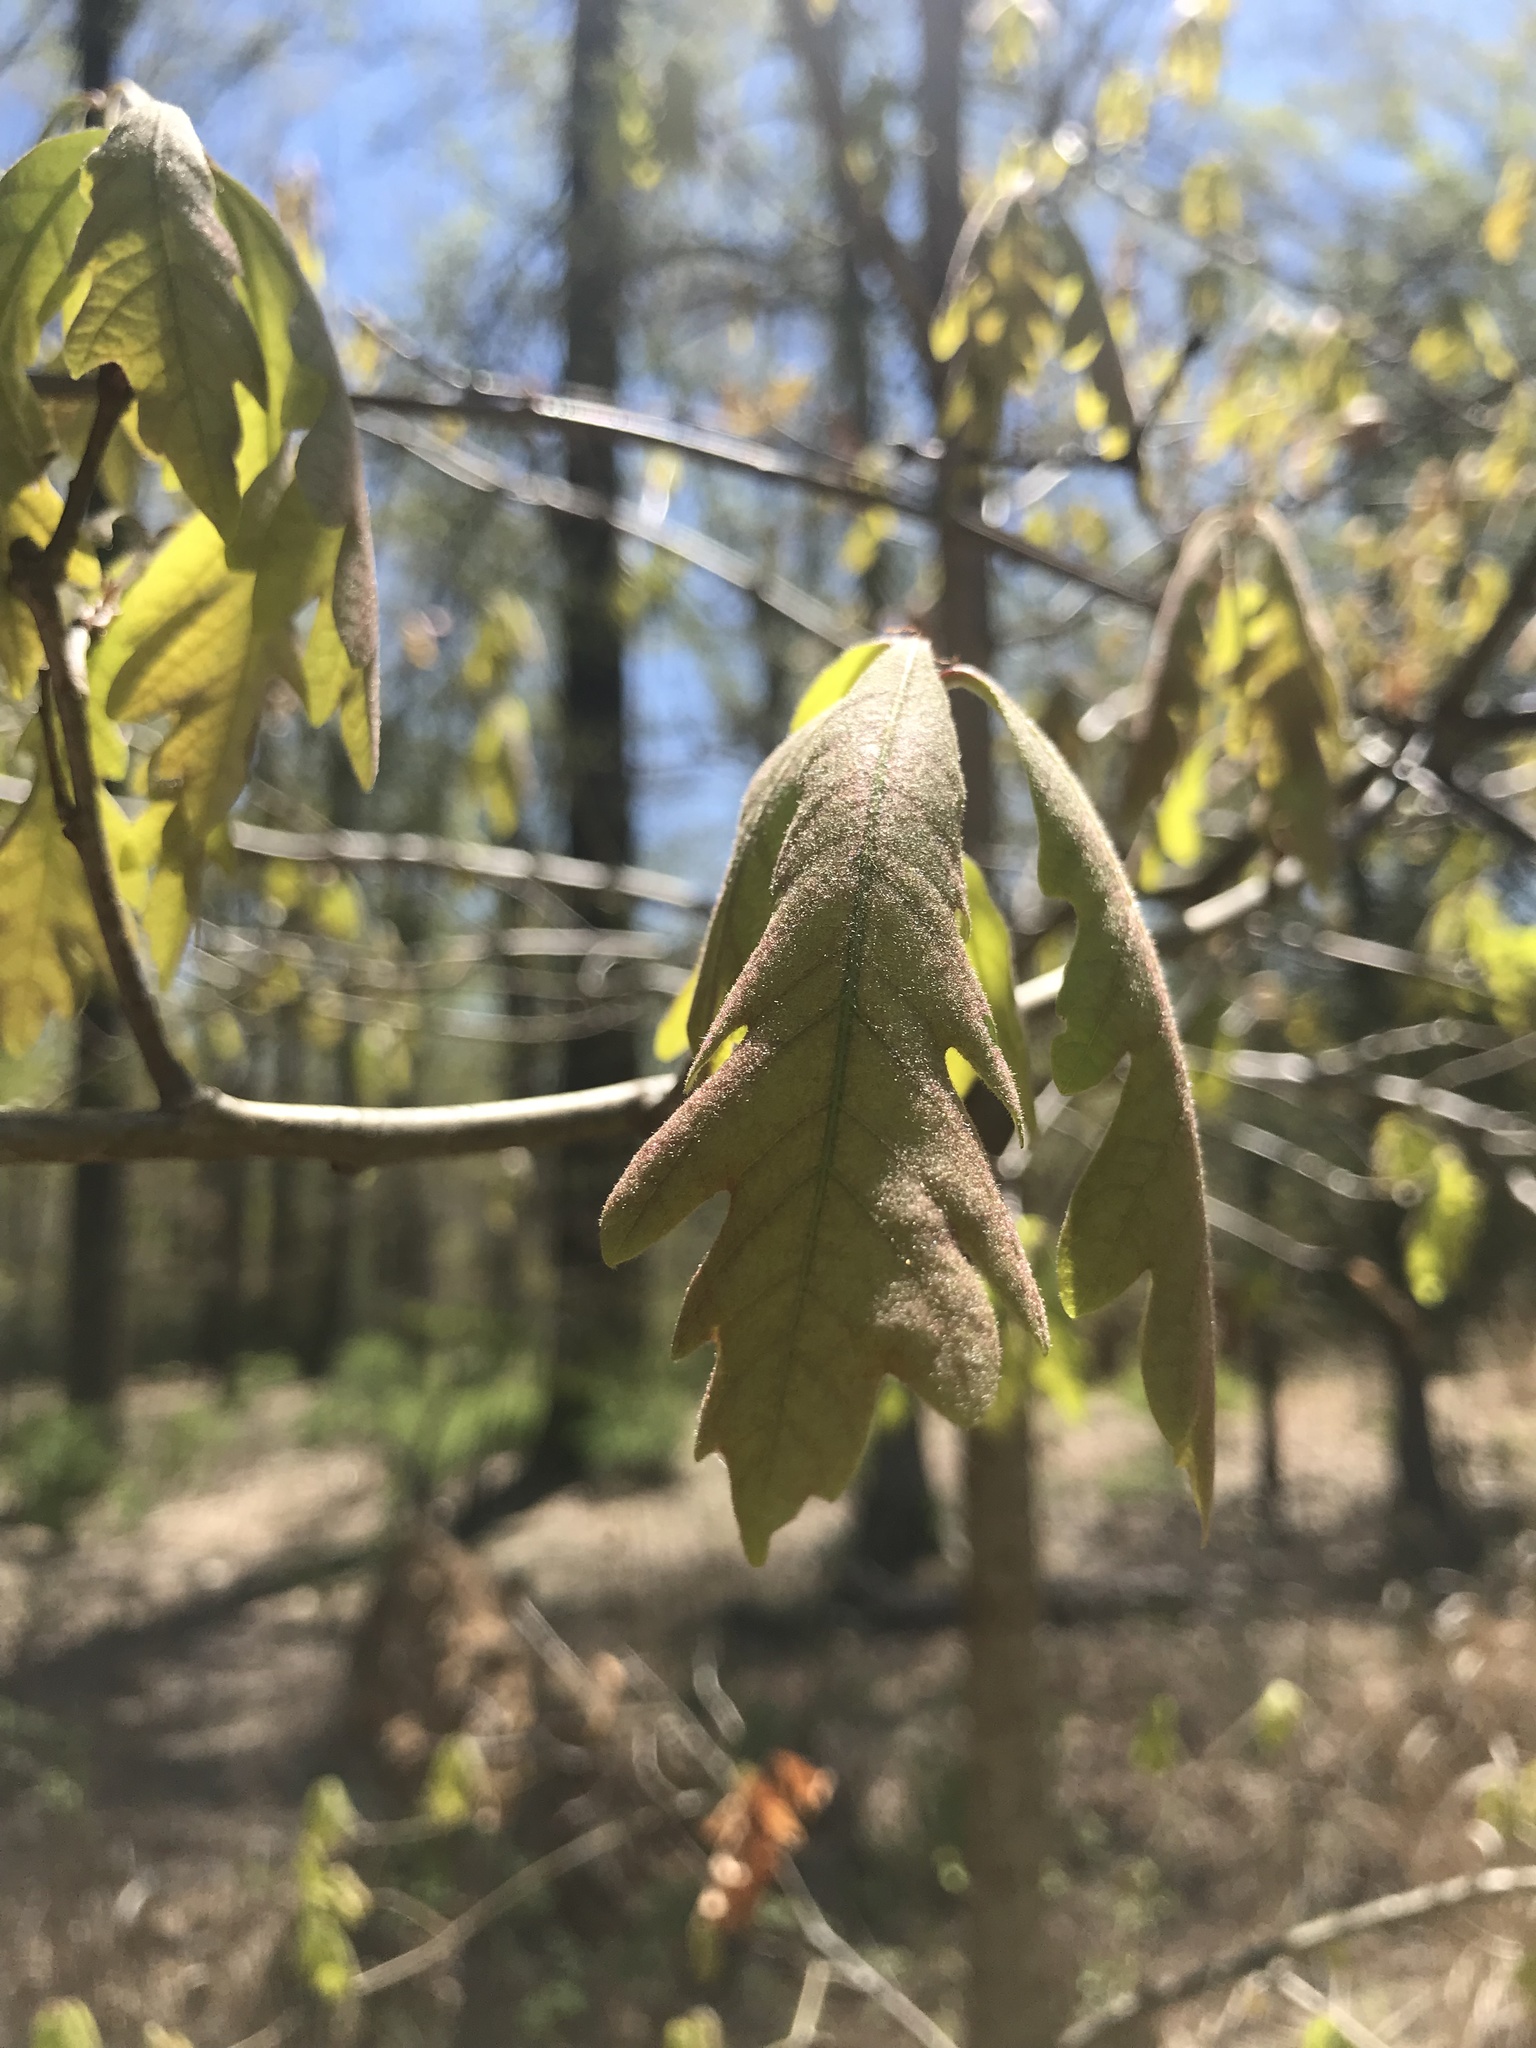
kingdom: Plantae
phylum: Tracheophyta
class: Magnoliopsida
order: Fagales
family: Fagaceae
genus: Quercus
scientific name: Quercus alba
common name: White oak
